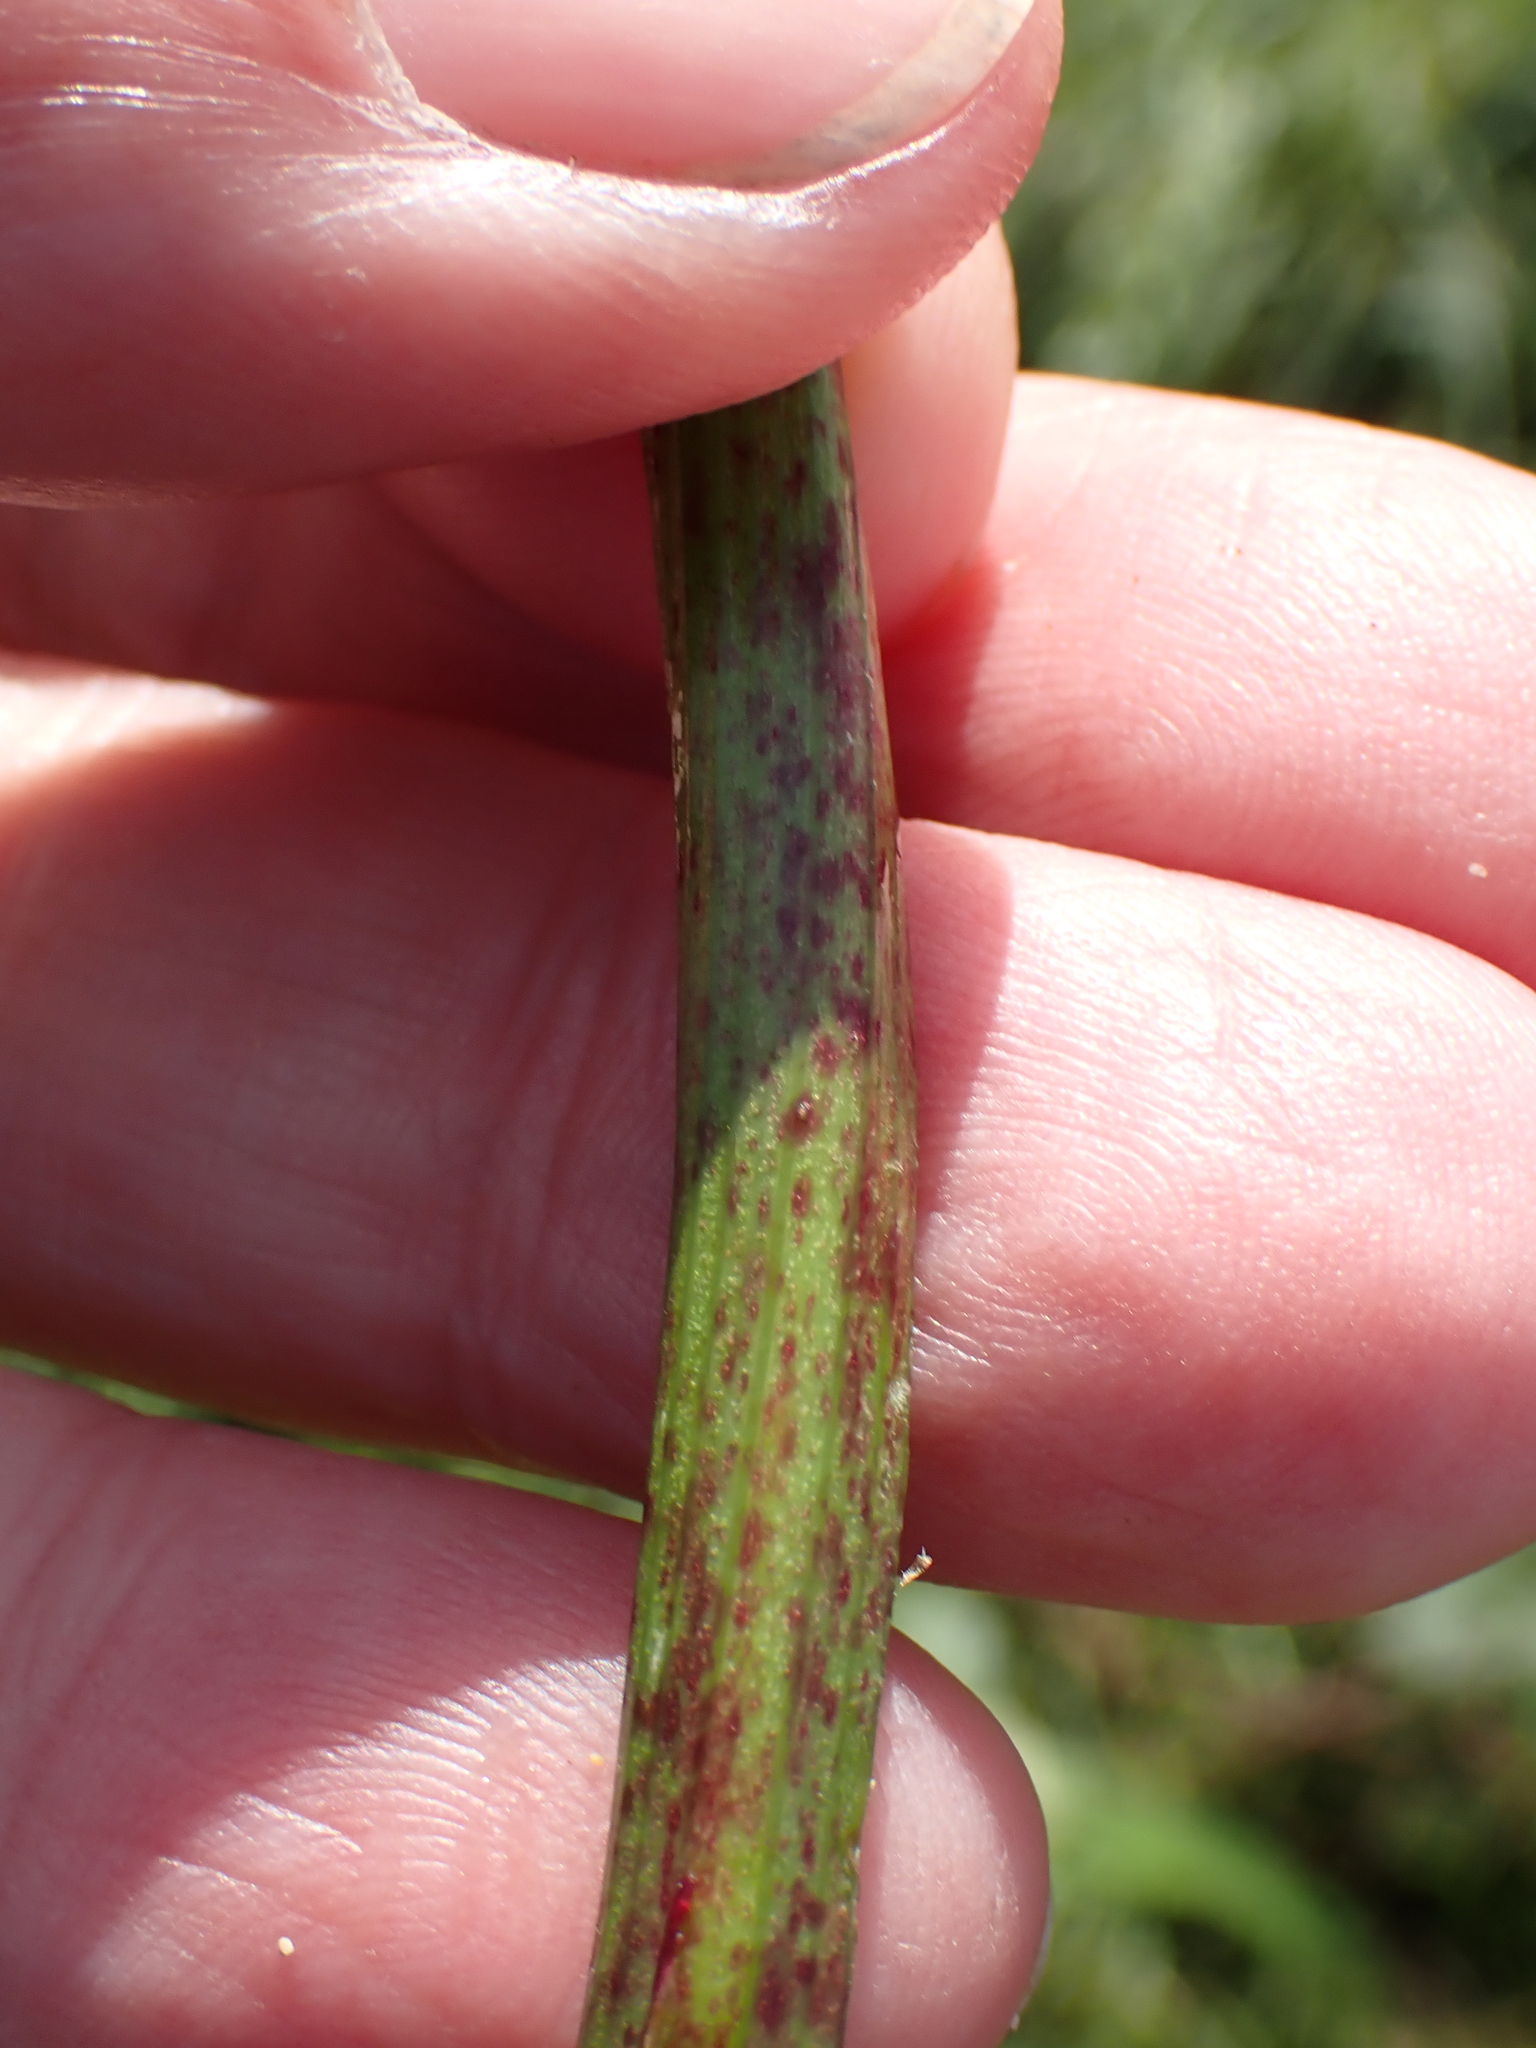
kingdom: Plantae
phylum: Tracheophyta
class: Magnoliopsida
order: Apiales
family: Apiaceae
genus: Conium
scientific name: Conium maculatum
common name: Hemlock
